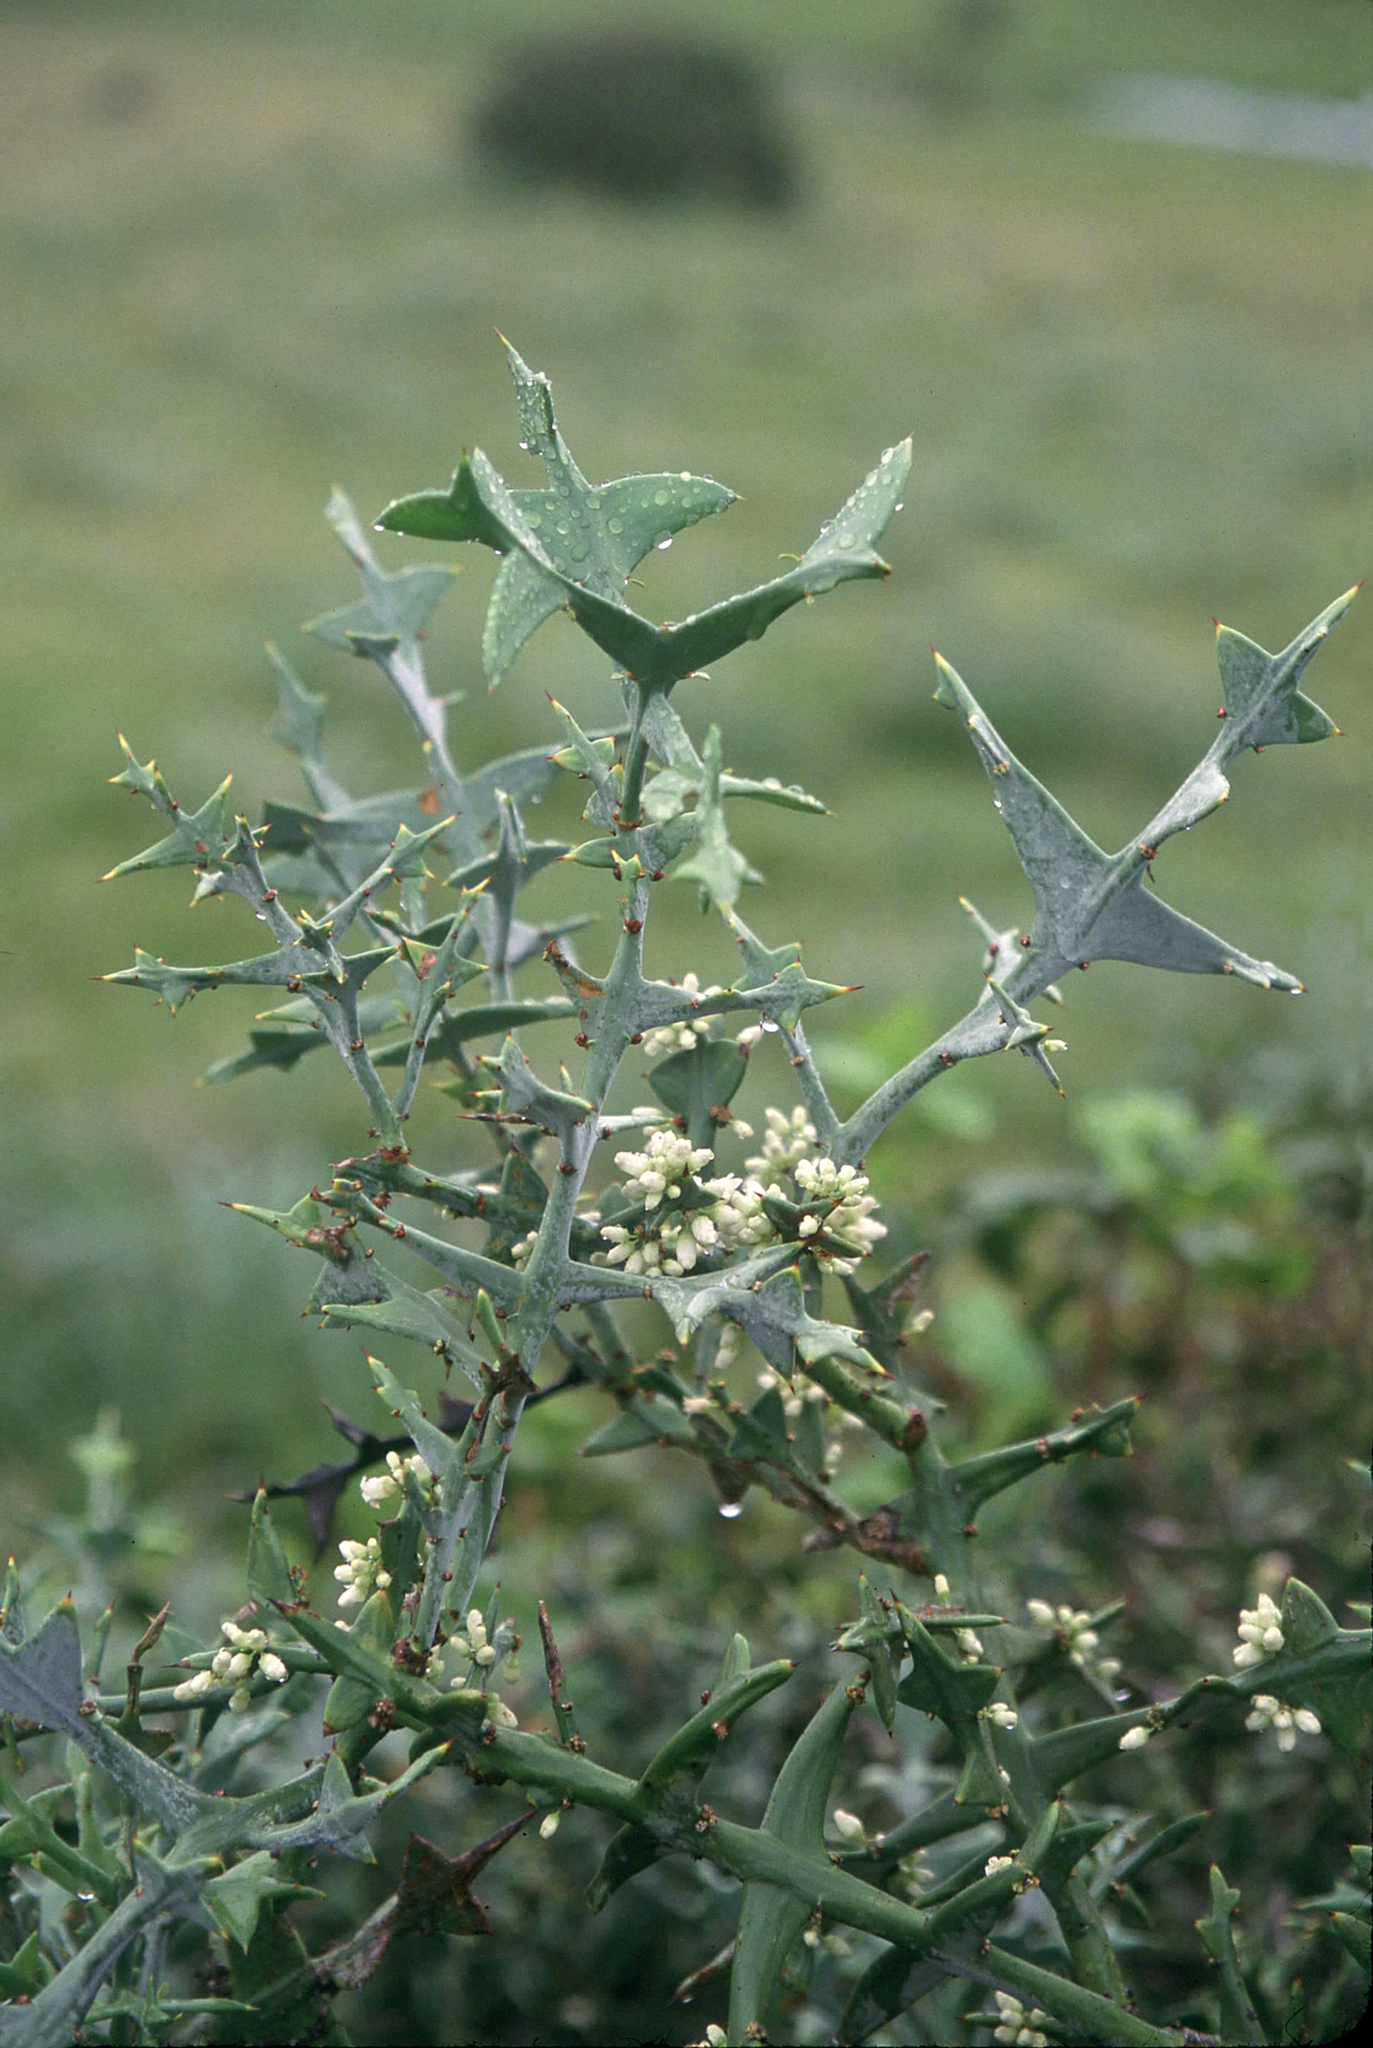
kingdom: Plantae
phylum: Tracheophyta
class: Magnoliopsida
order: Rosales
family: Rhamnaceae
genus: Colletia
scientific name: Colletia paradoxa
